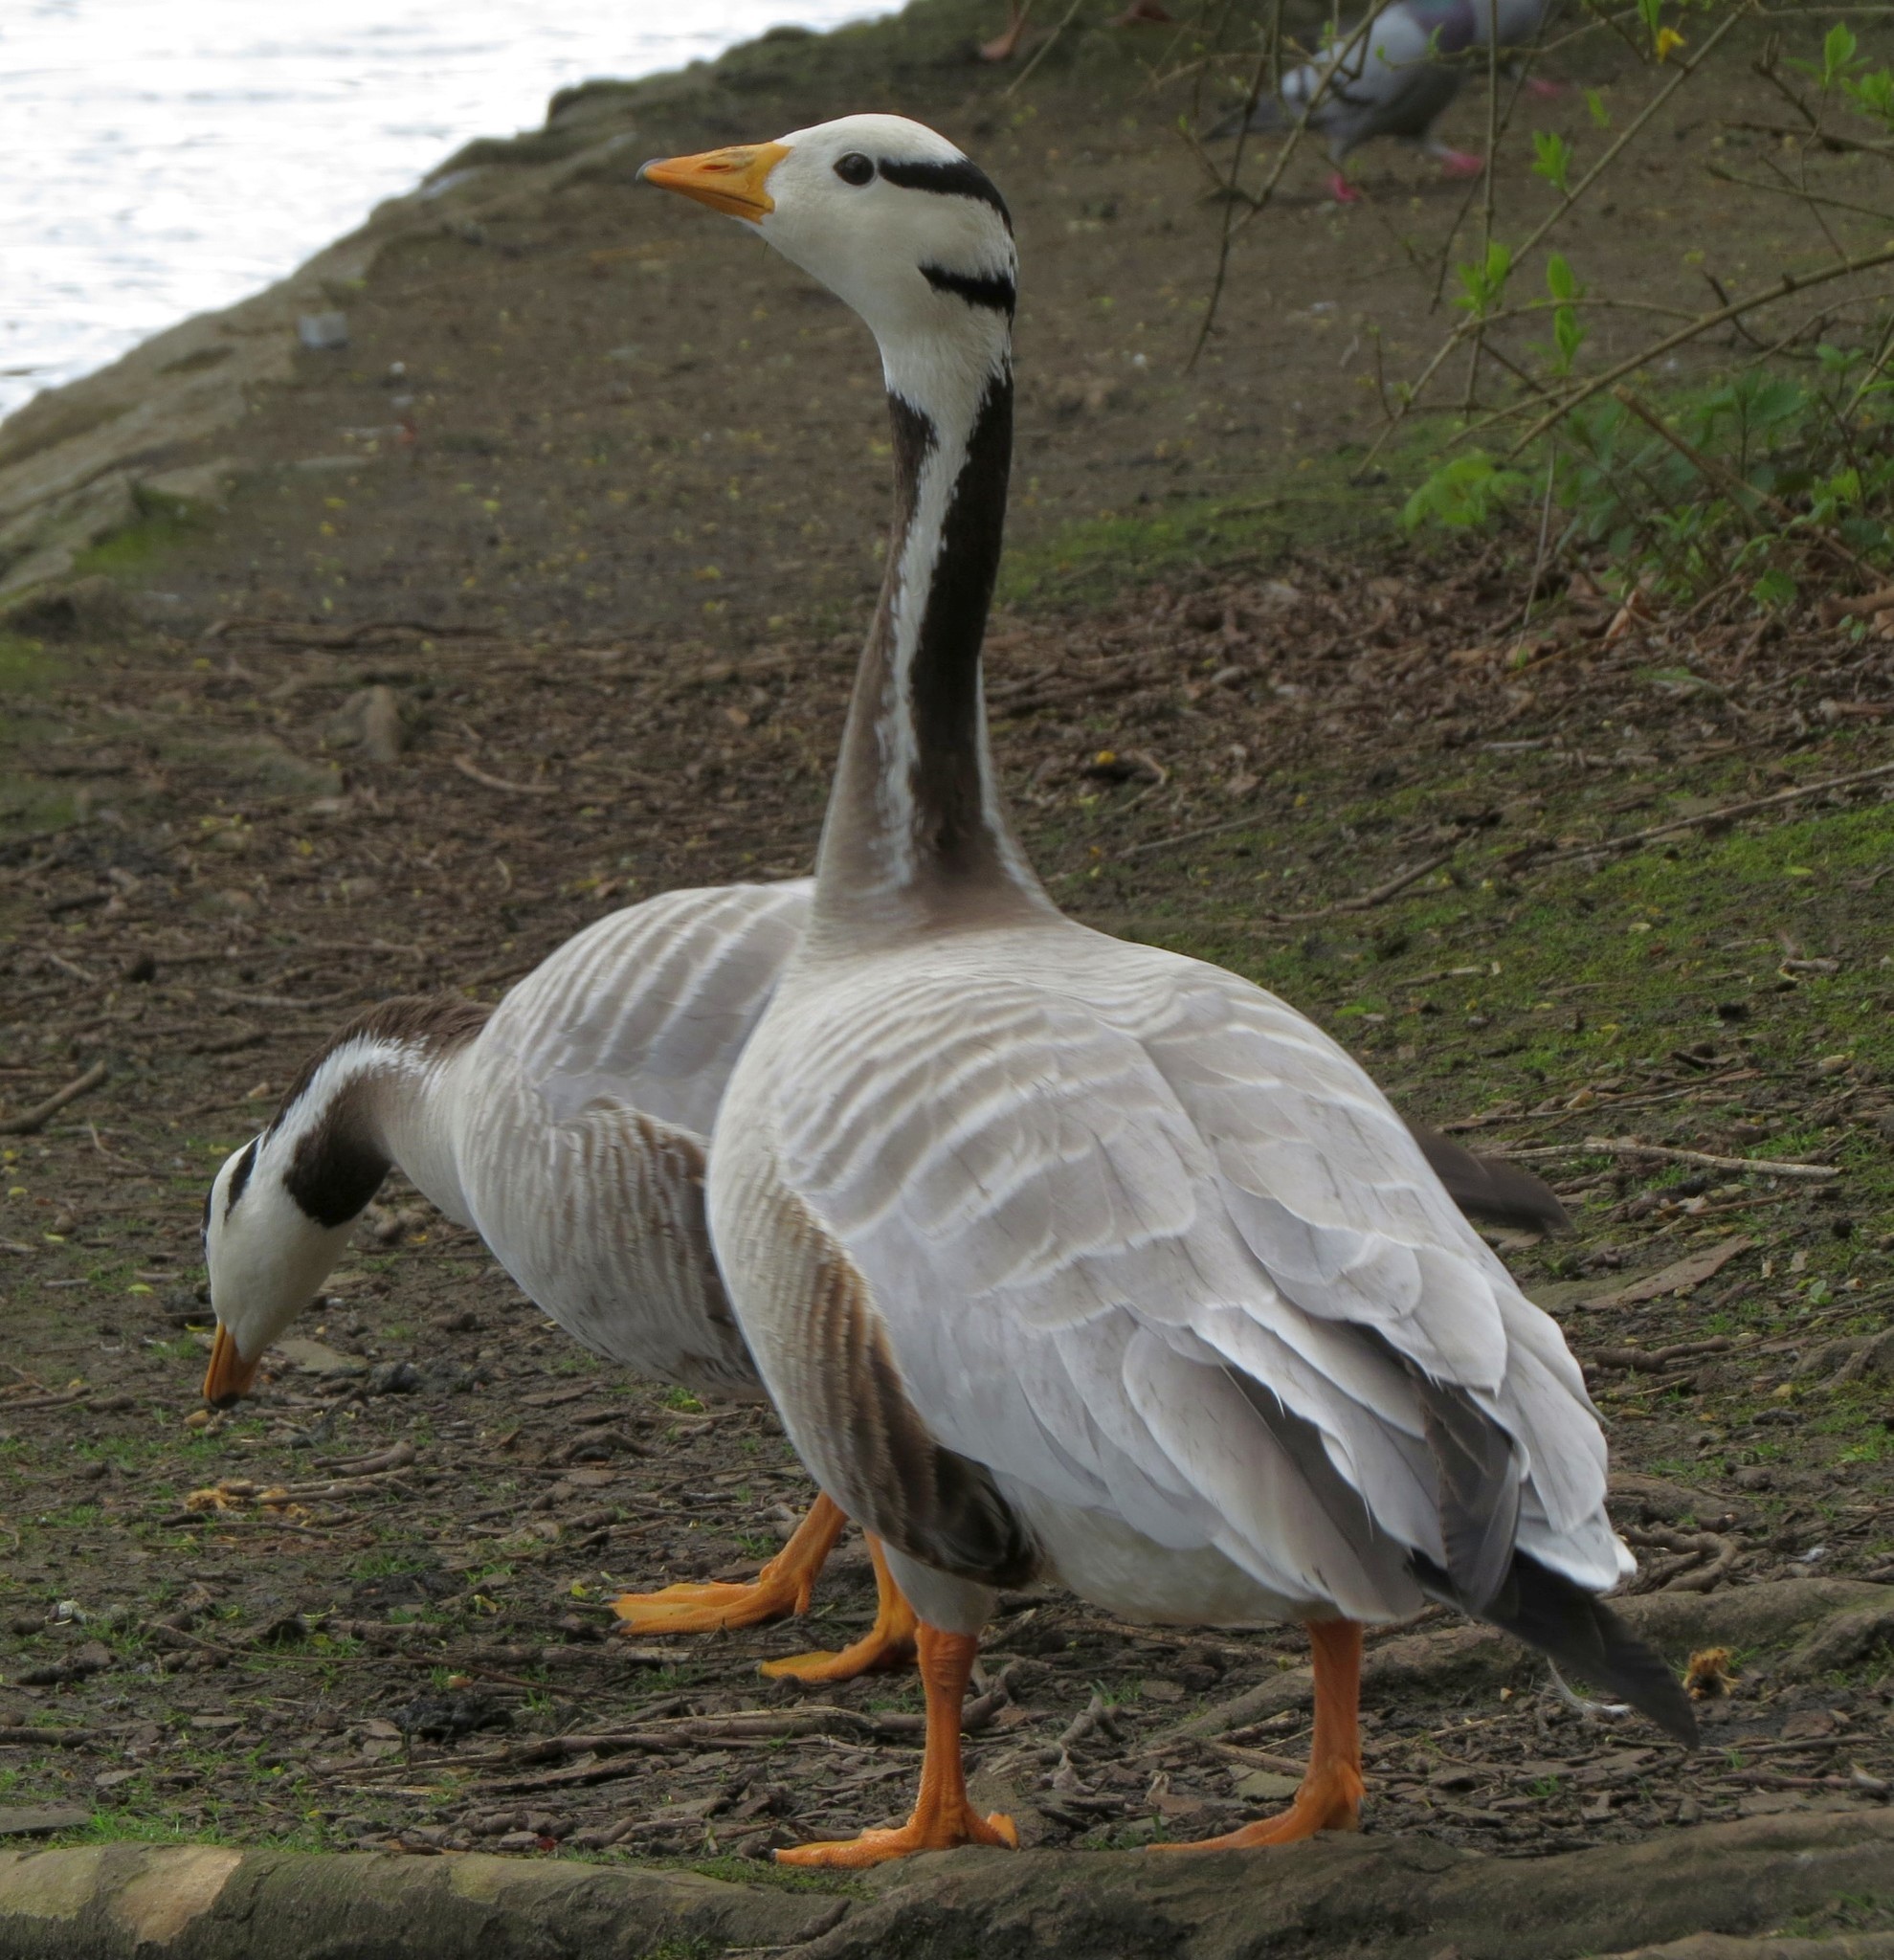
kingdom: Animalia
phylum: Chordata
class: Aves
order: Anseriformes
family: Anatidae
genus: Anser
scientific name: Anser indicus
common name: Bar-headed goose
